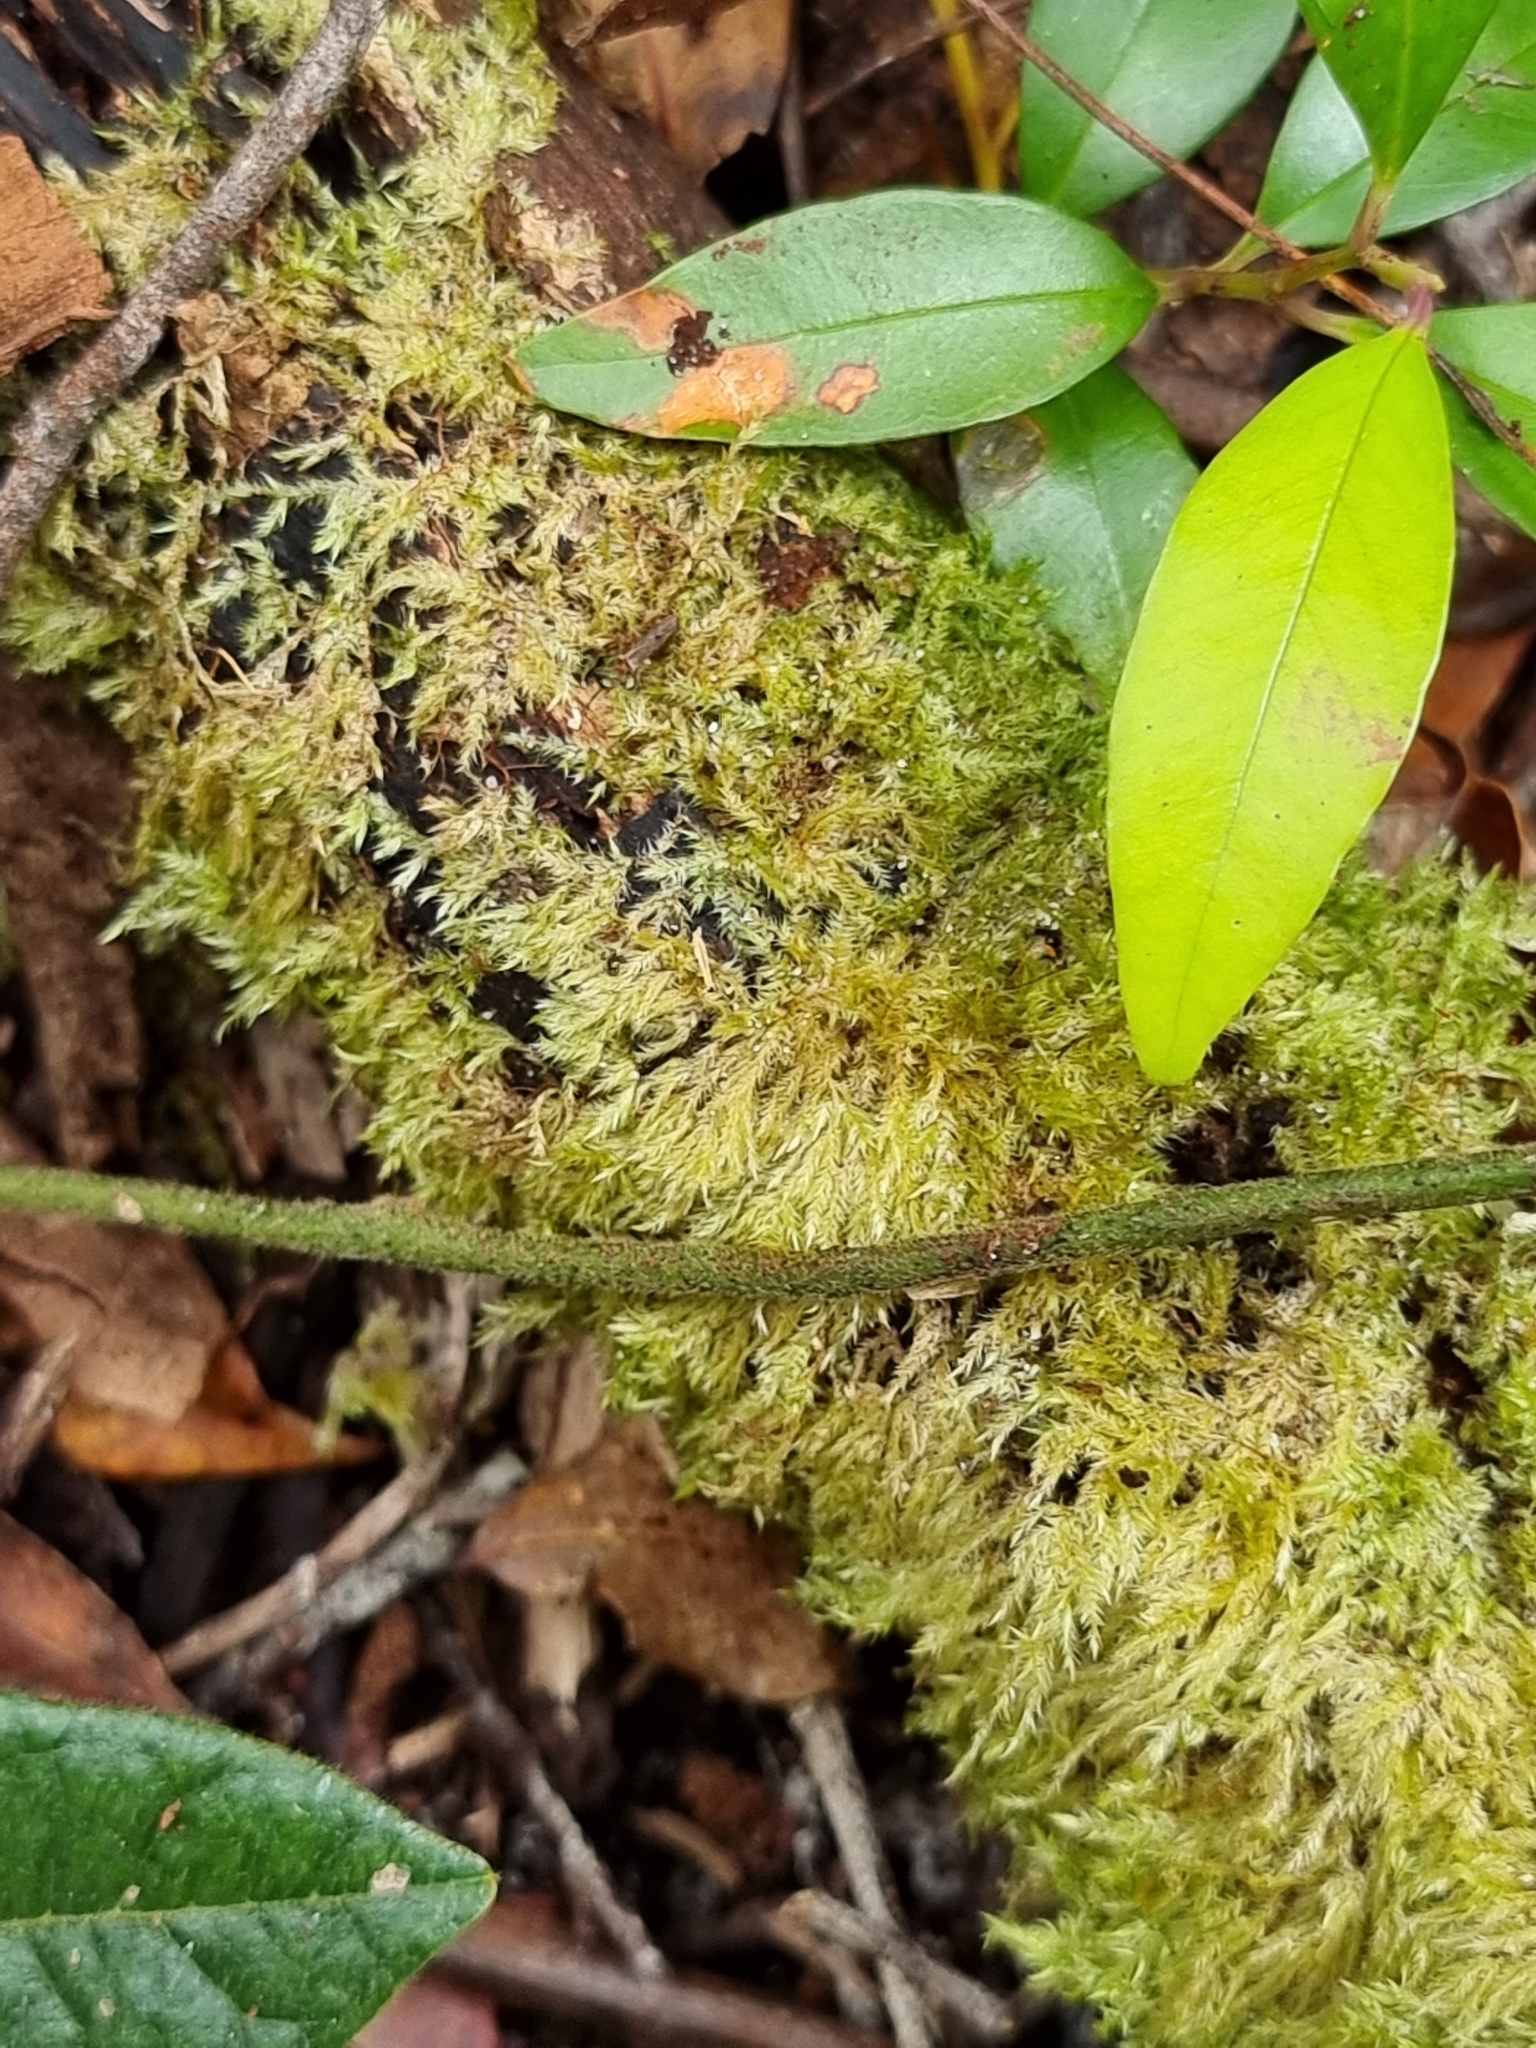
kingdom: Plantae
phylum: Bryophyta
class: Bryopsida
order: Hypnales
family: Pylaisiadelphaceae
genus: Wijkia
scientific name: Wijkia extenuata
